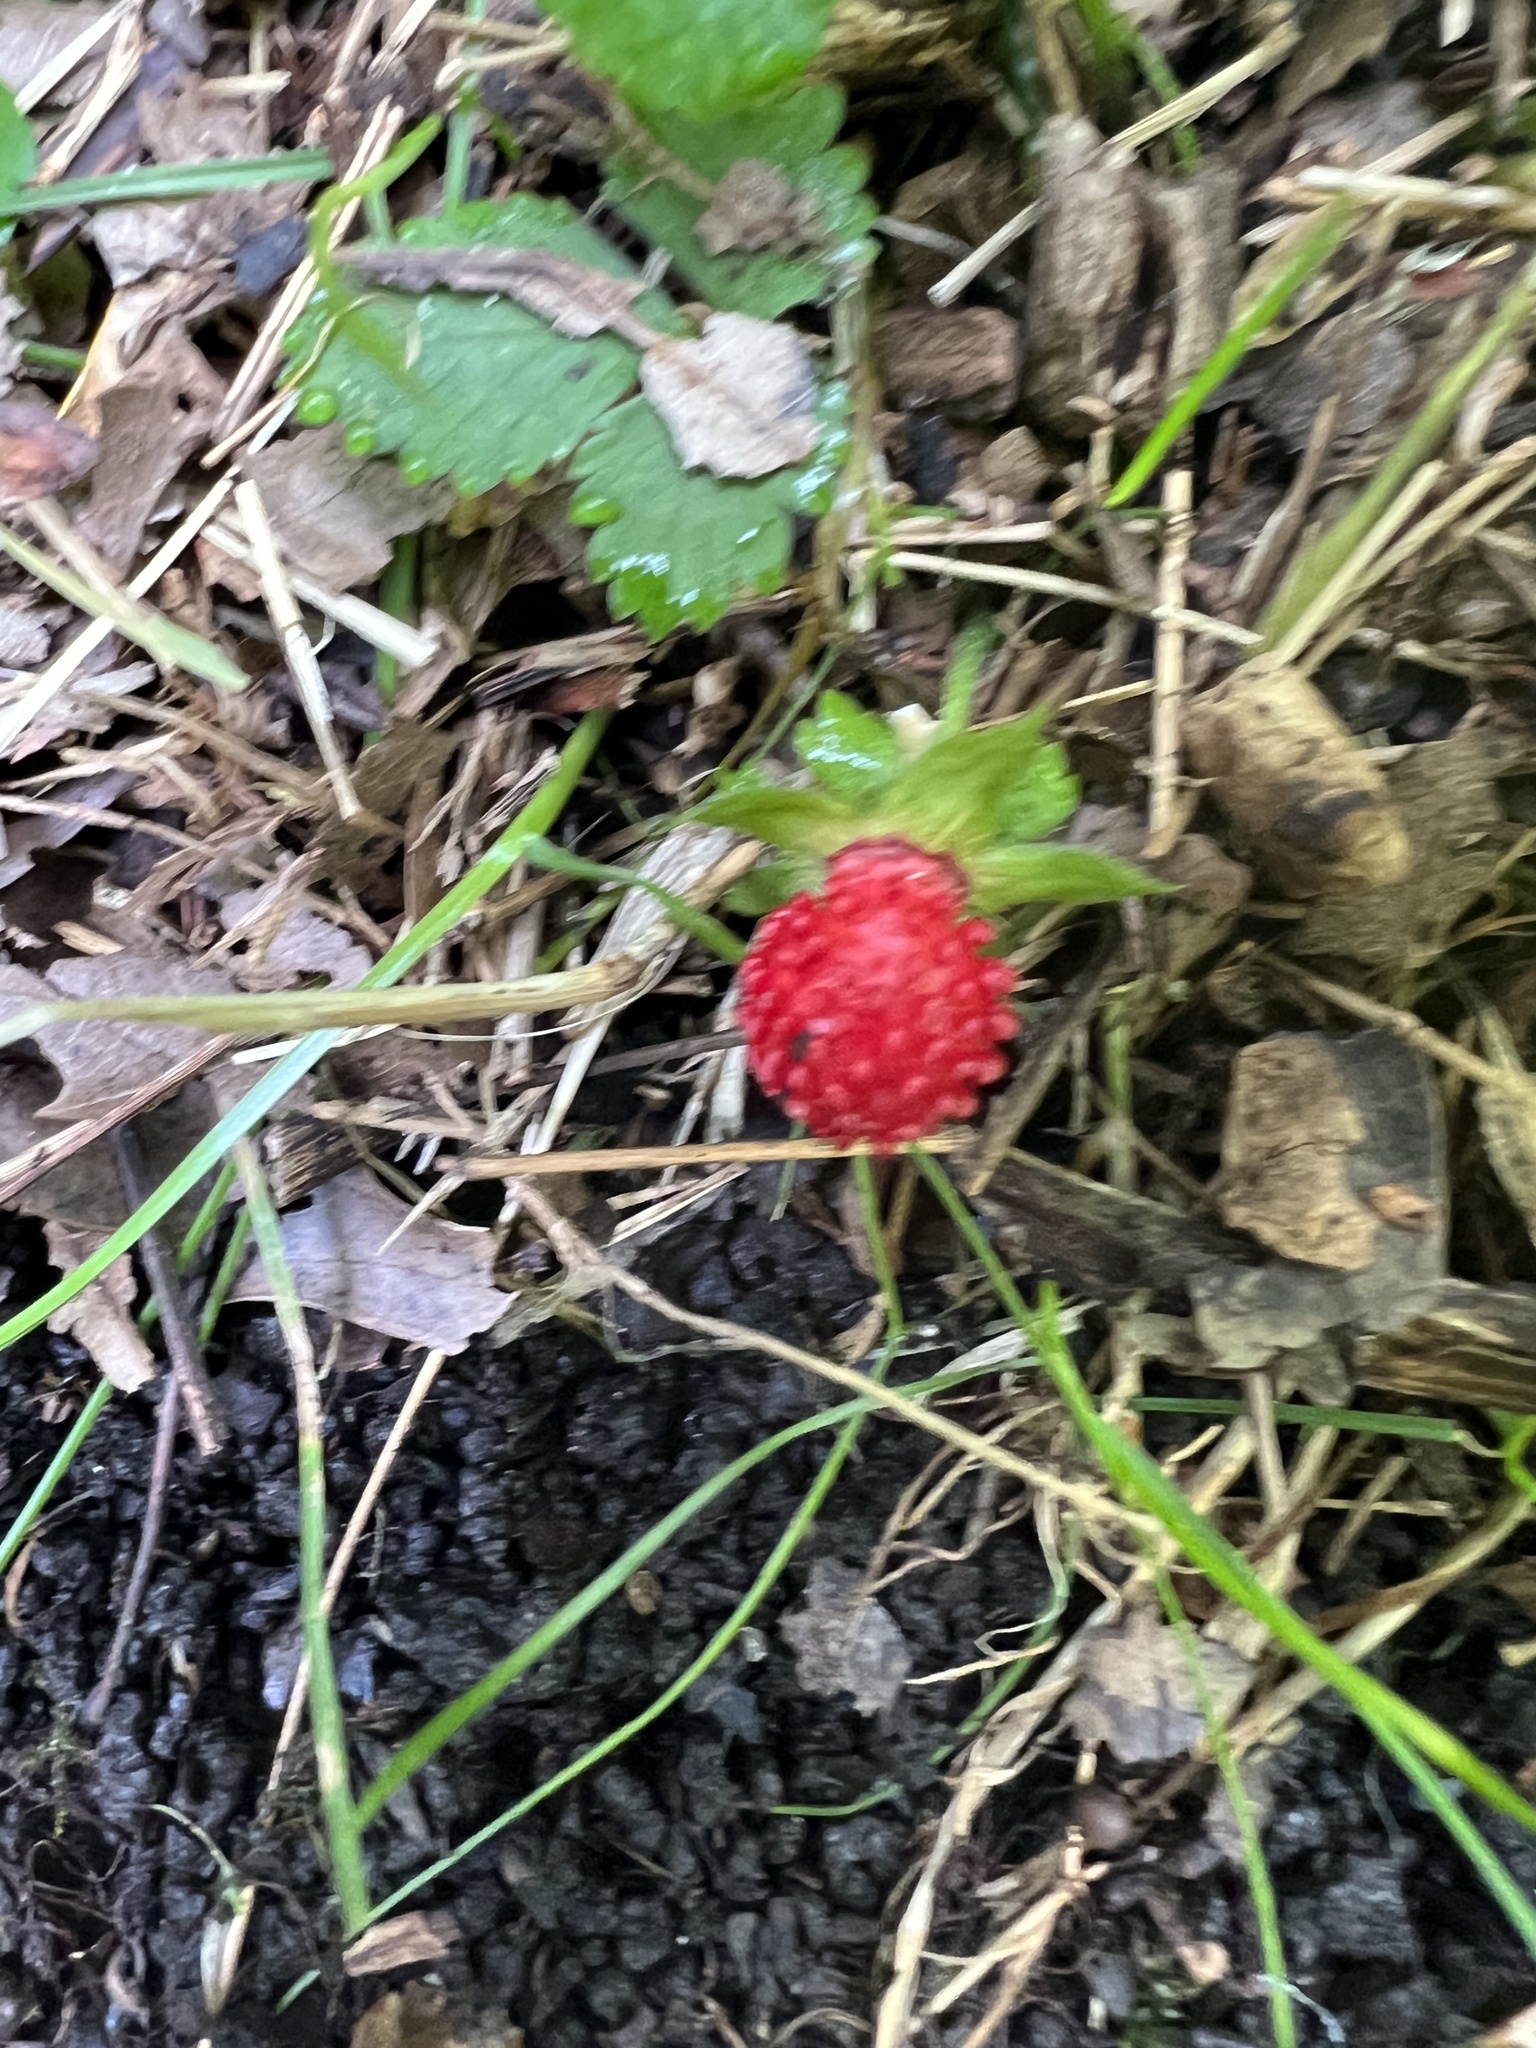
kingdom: Plantae
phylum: Tracheophyta
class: Magnoliopsida
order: Rosales
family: Rosaceae
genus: Potentilla
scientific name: Potentilla indica
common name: Yellow-flowered strawberry
